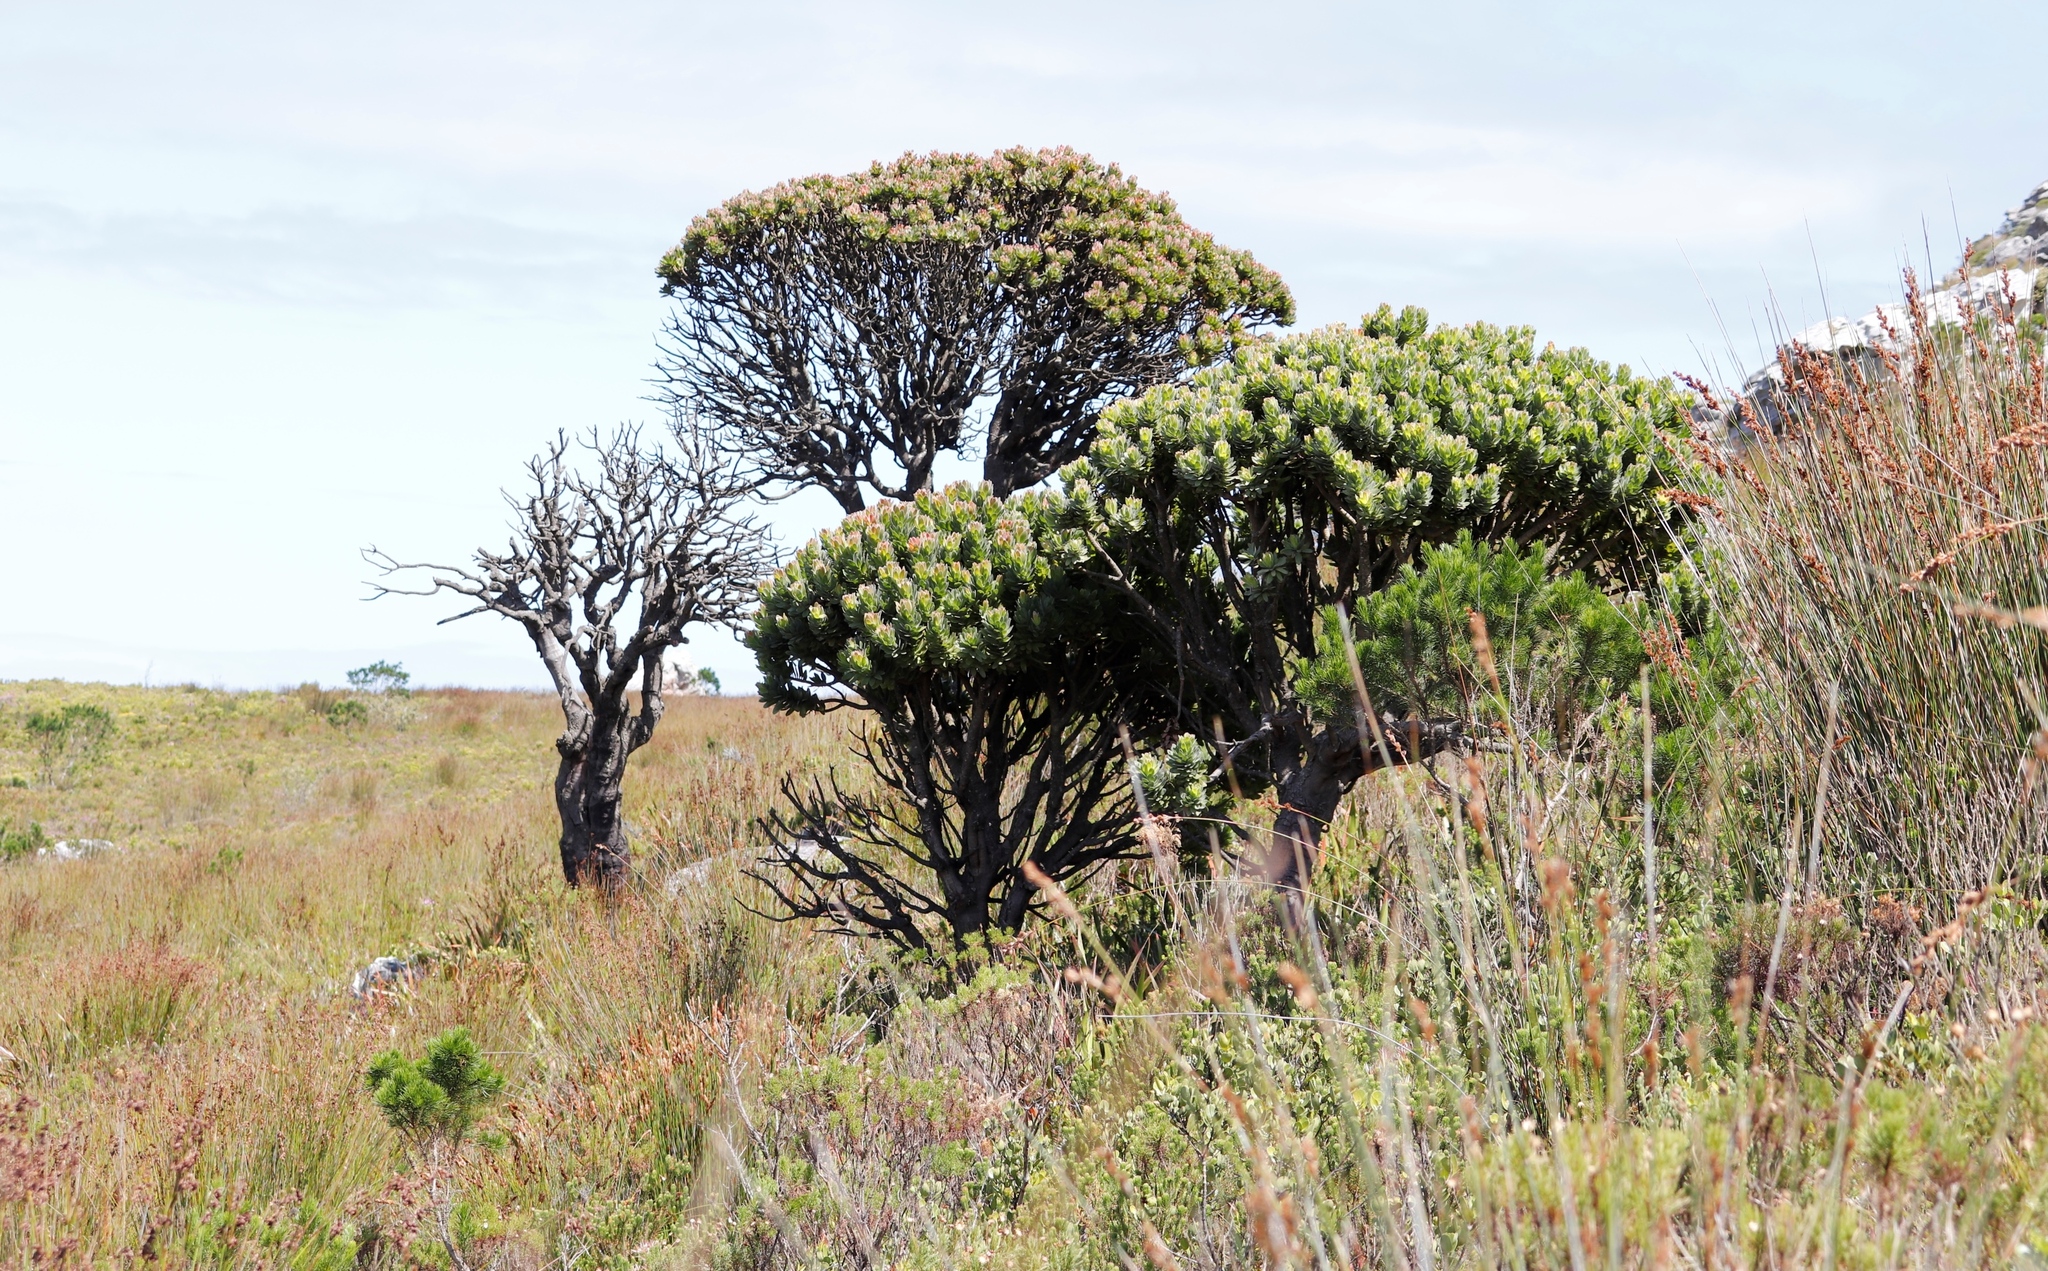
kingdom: Plantae
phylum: Tracheophyta
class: Magnoliopsida
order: Proteales
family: Proteaceae
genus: Mimetes
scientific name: Mimetes fimbriifolius
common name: Fringed bottlebrush
